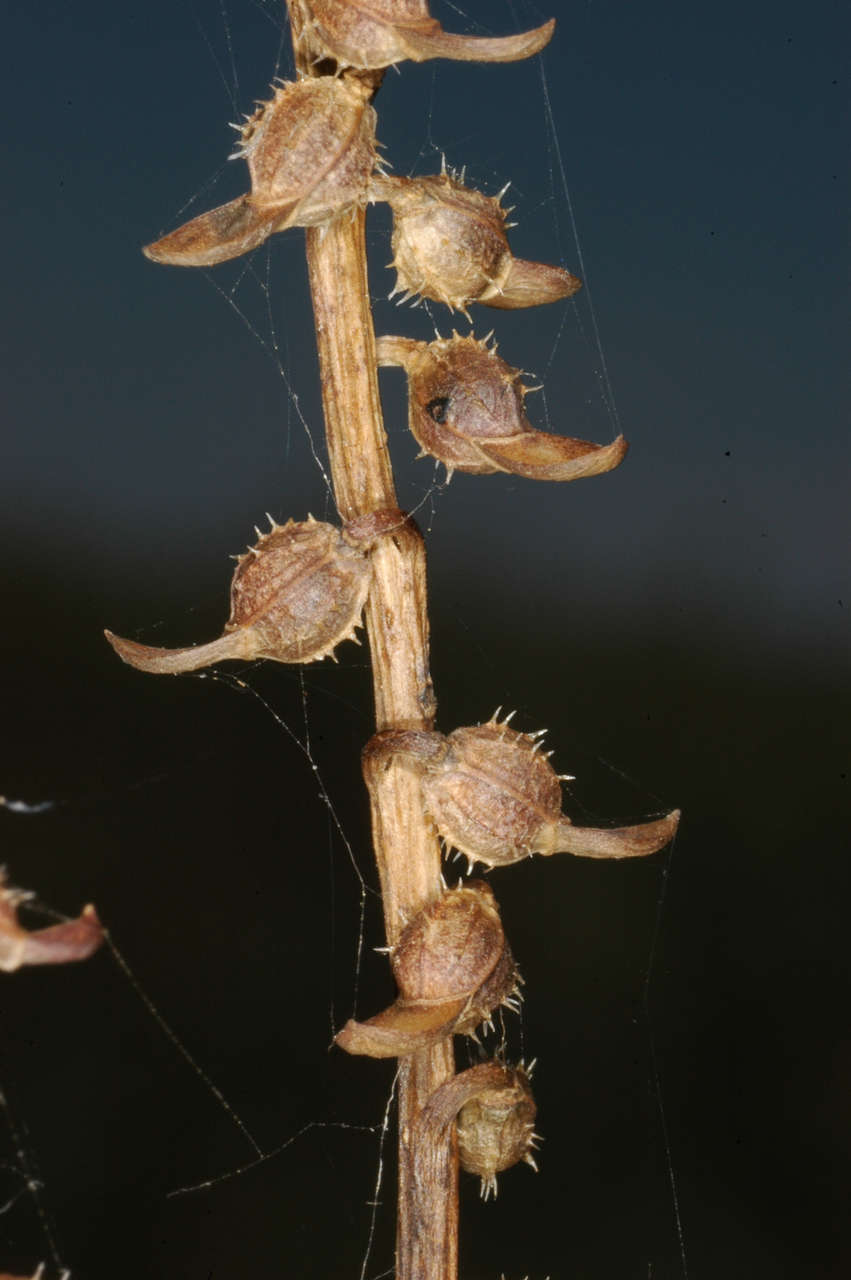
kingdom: Plantae
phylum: Tracheophyta
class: Magnoliopsida
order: Brassicales
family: Brassicaceae
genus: Carrichtera
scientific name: Carrichtera annua
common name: Cress rocket
